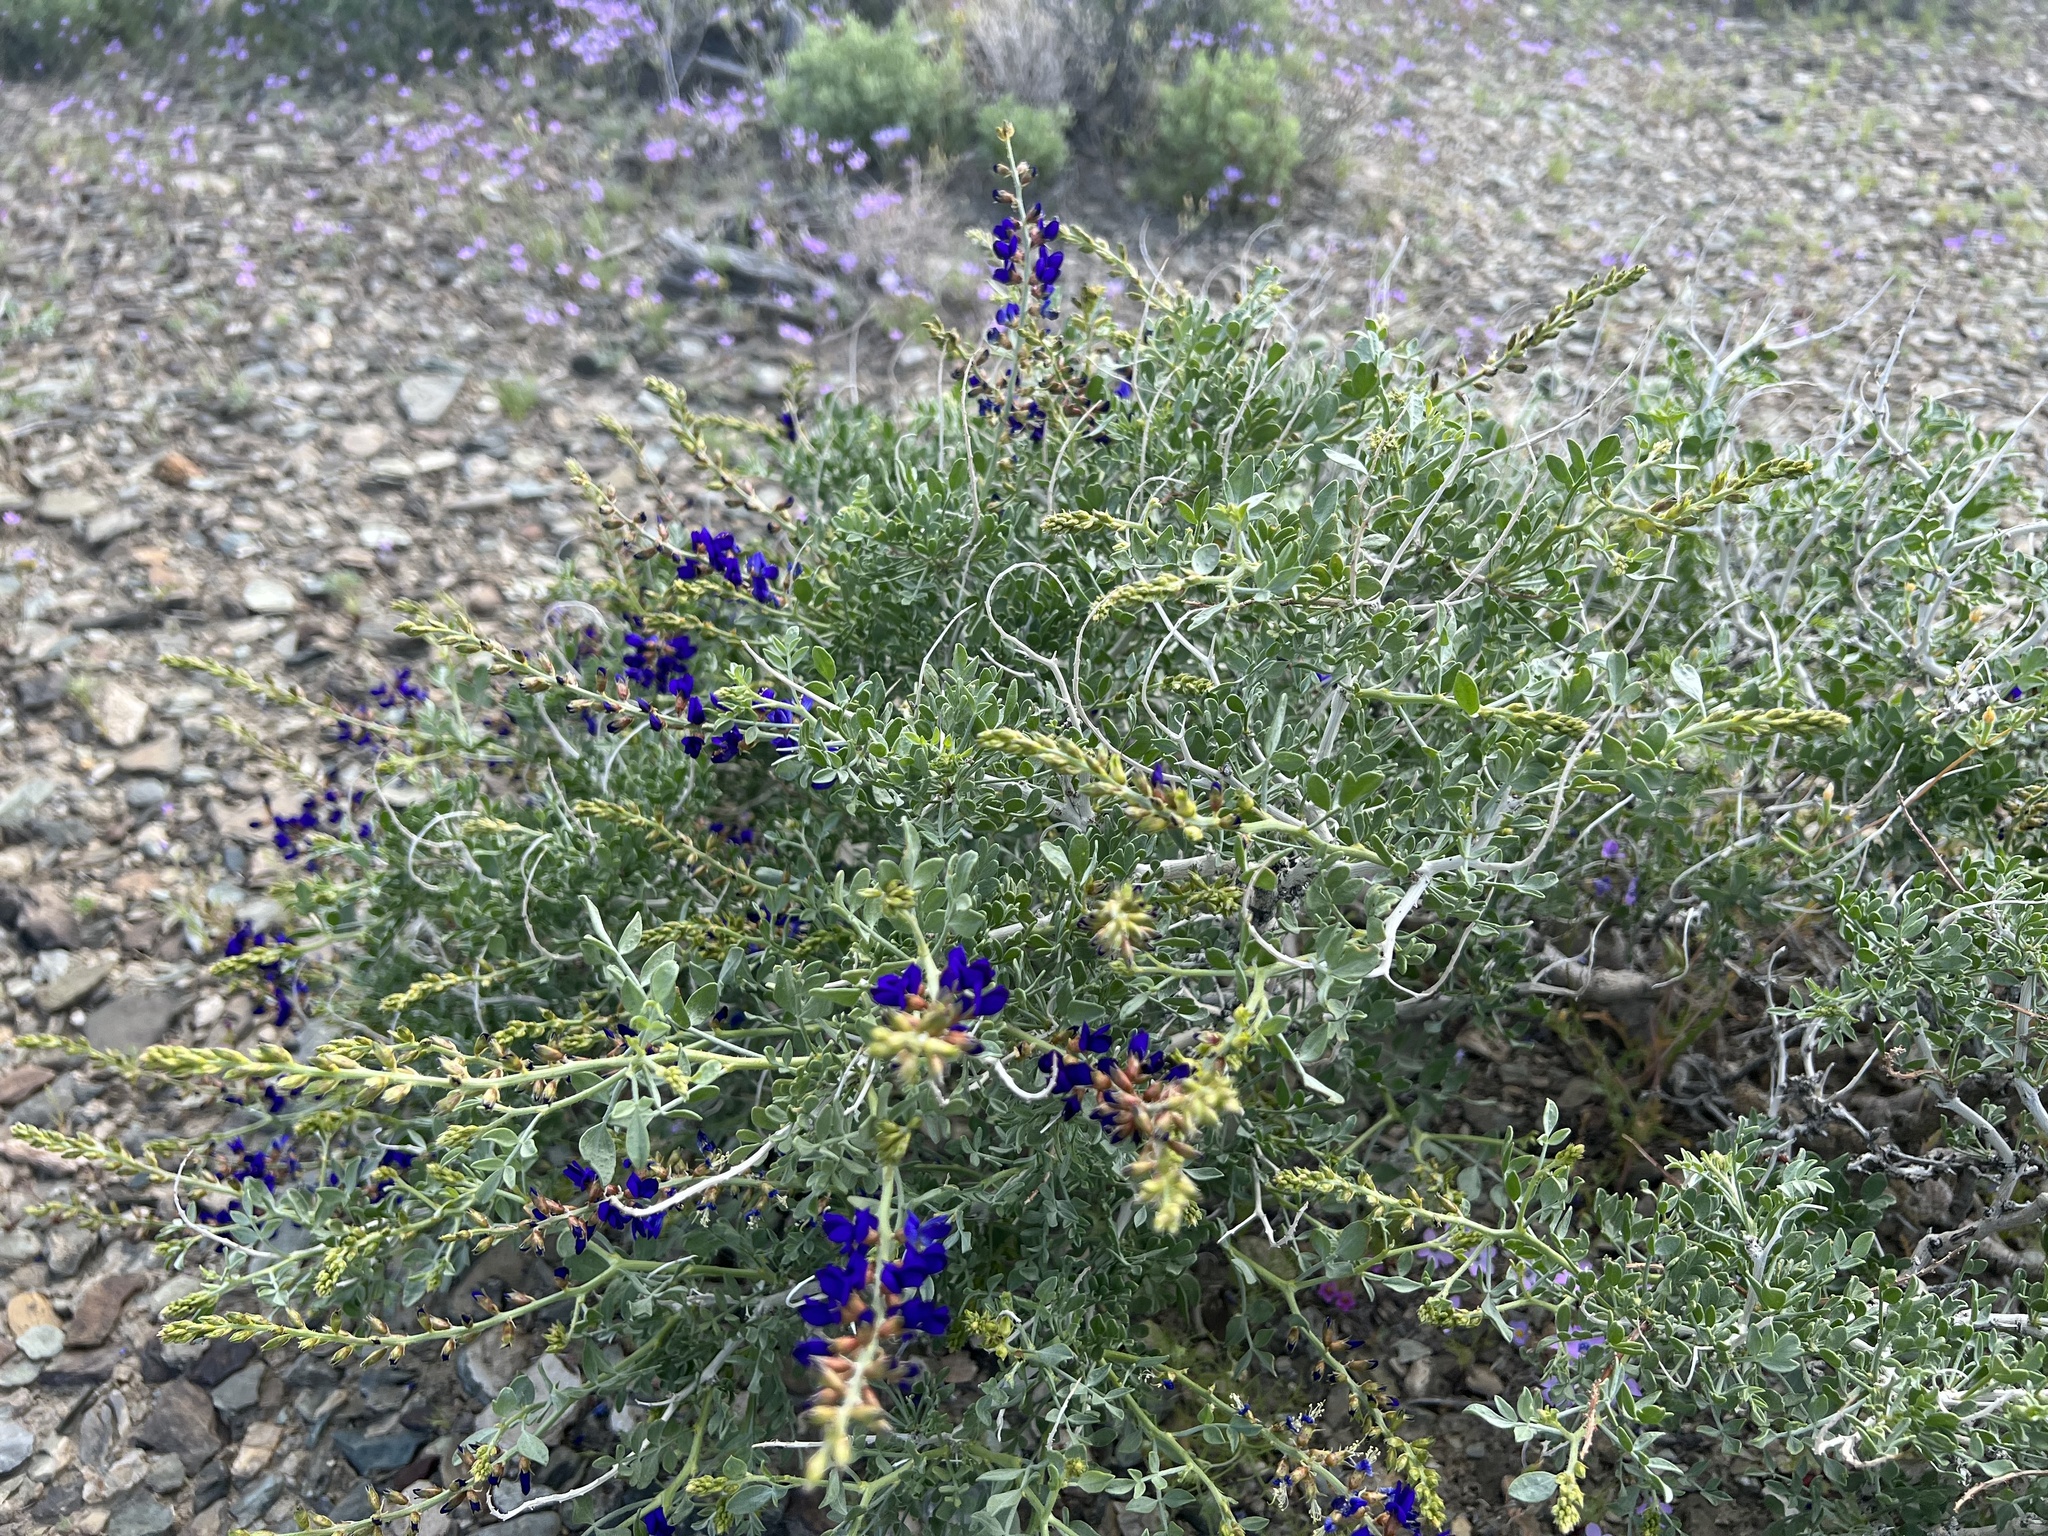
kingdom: Plantae
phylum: Tracheophyta
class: Magnoliopsida
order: Fabales
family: Fabaceae
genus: Psorothamnus
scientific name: Psorothamnus arborescens
